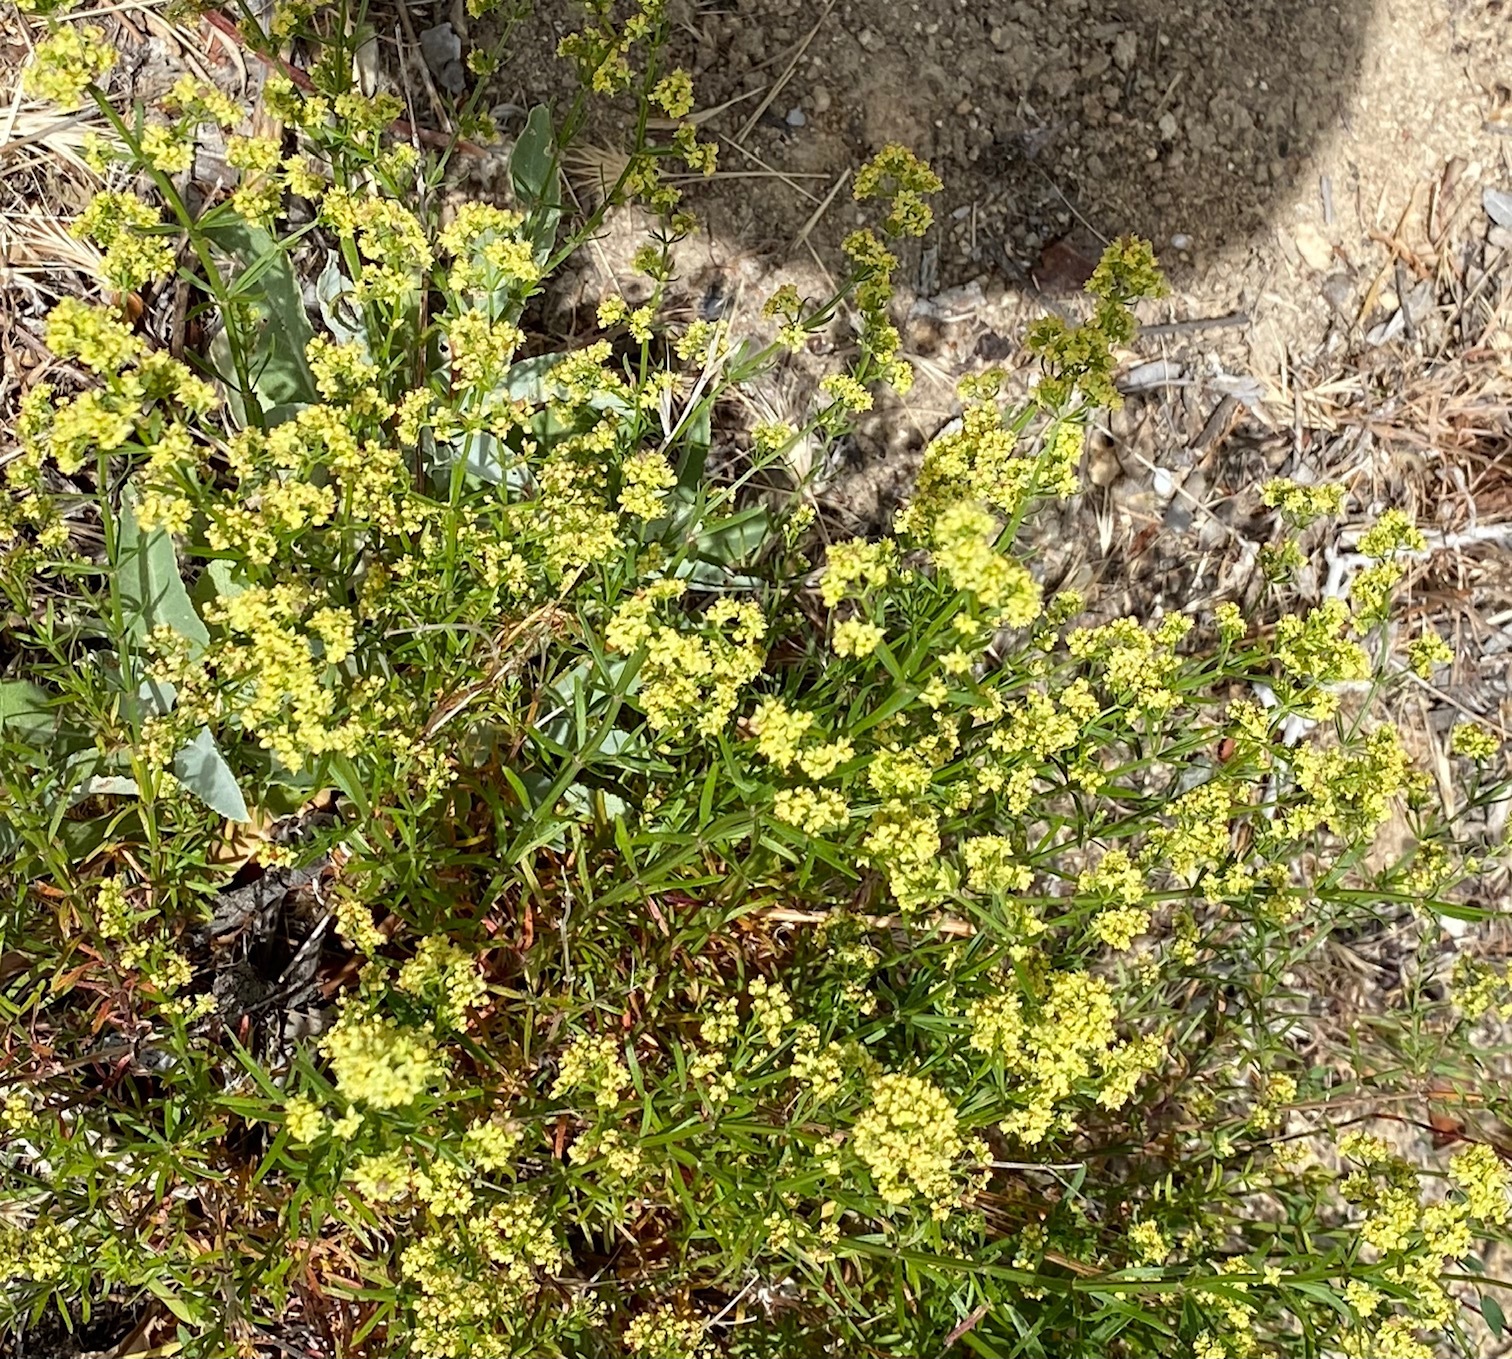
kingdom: Plantae
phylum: Tracheophyta
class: Magnoliopsida
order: Gentianales
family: Rubiaceae
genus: Galium
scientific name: Galium angustifolium
